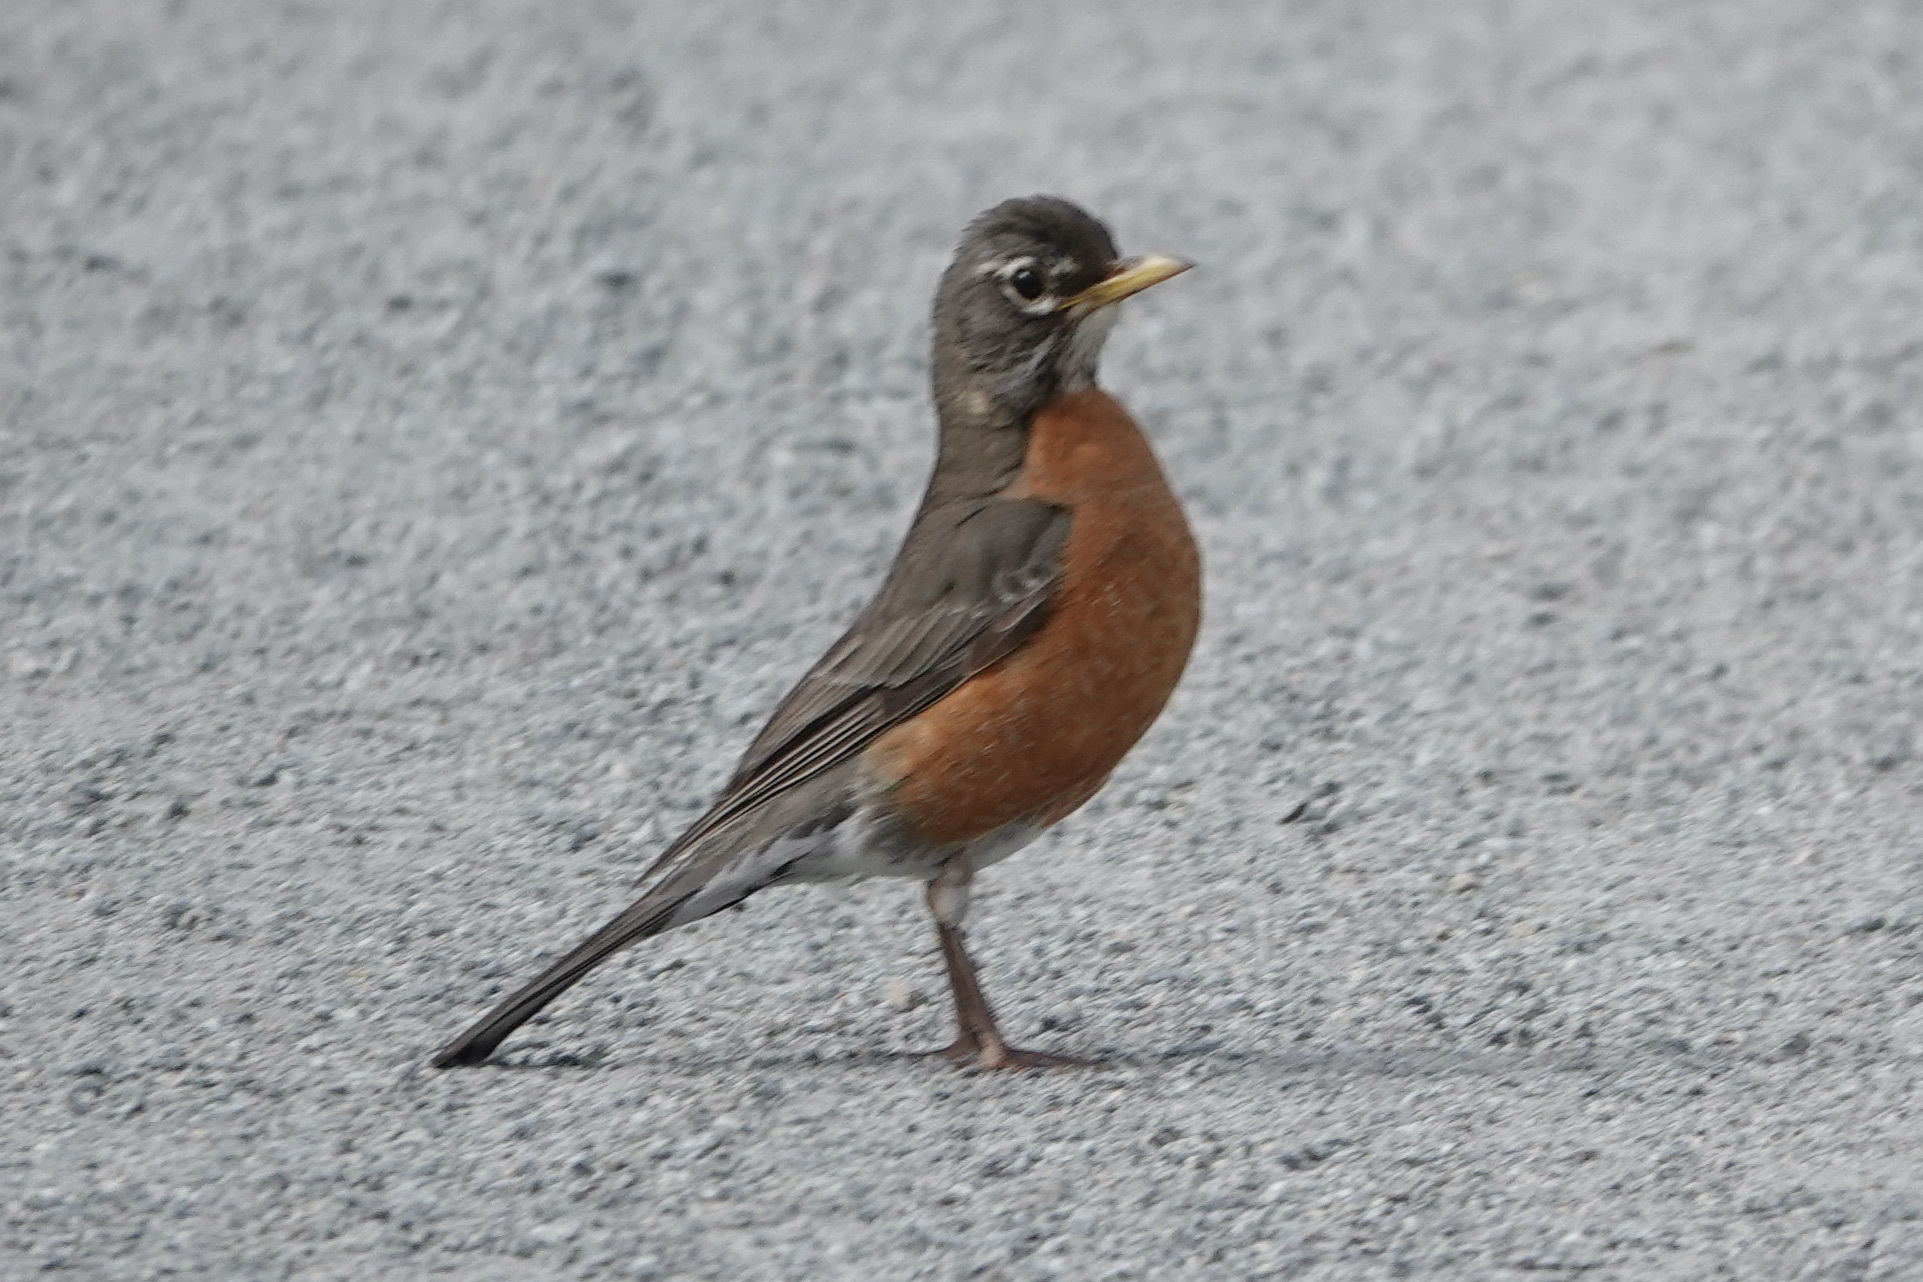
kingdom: Animalia
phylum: Chordata
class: Aves
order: Passeriformes
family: Turdidae
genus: Turdus
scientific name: Turdus migratorius
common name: American robin
